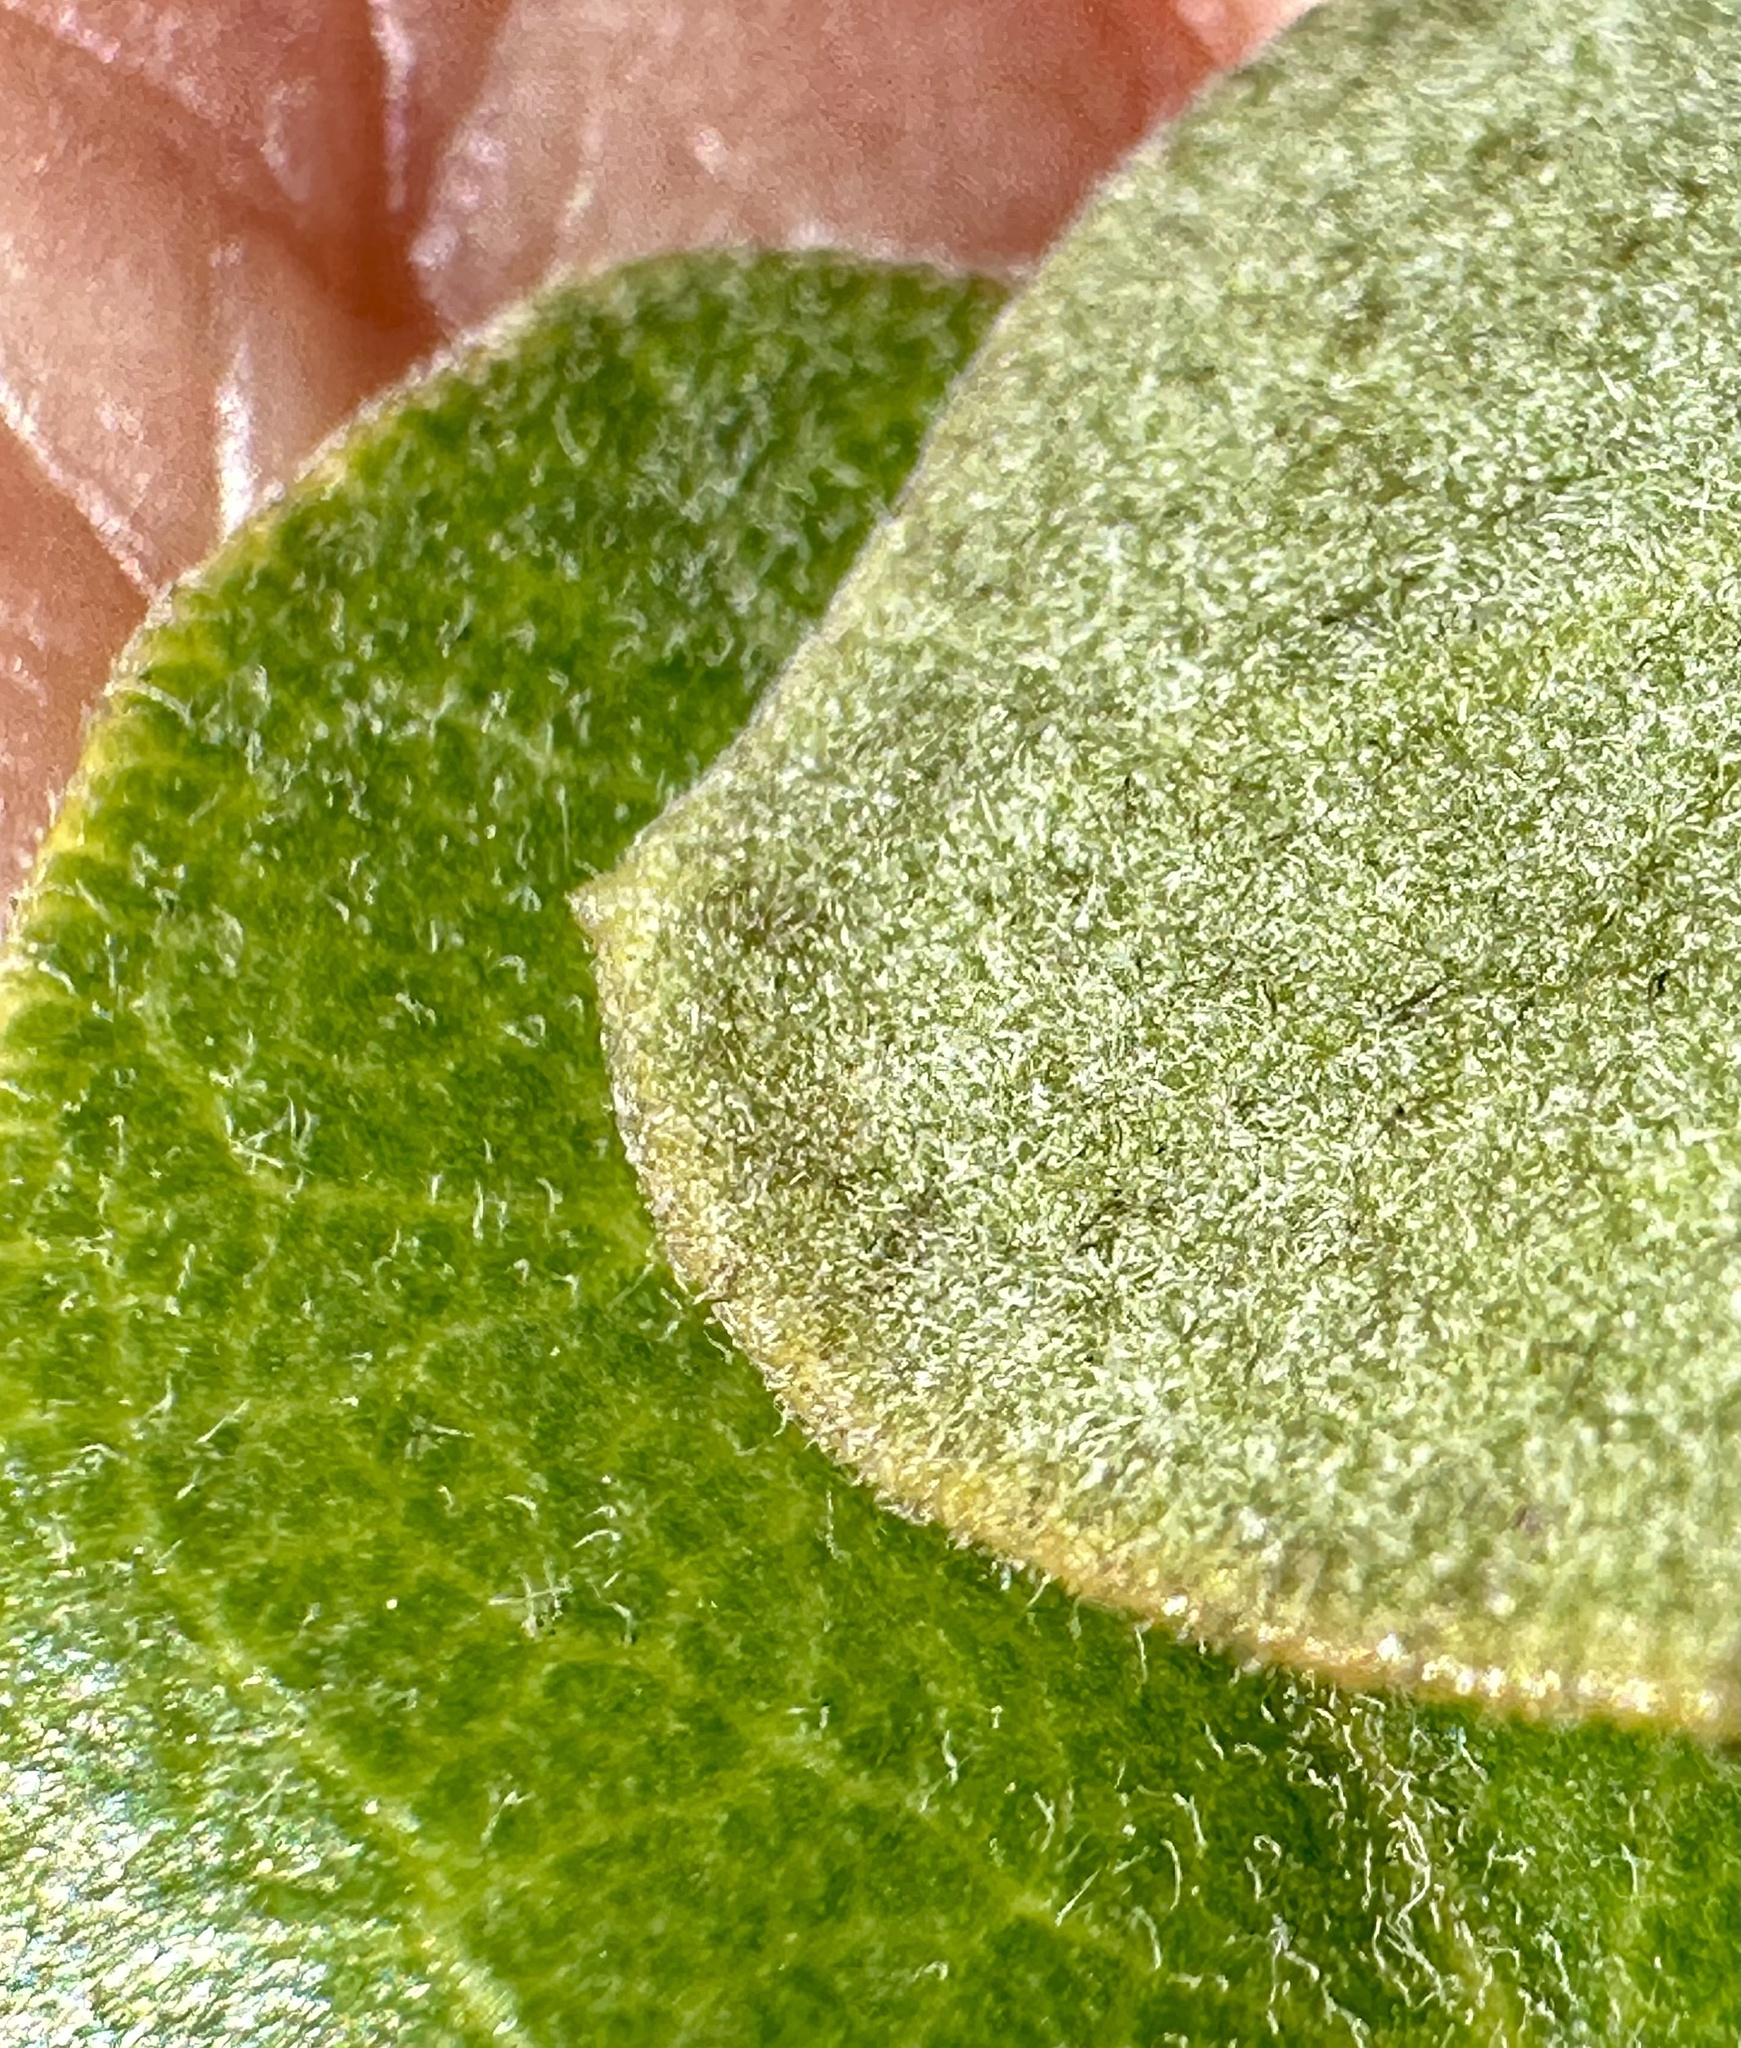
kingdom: Plantae
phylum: Tracheophyta
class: Magnoliopsida
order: Ericales
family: Ericaceae
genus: Arctostaphylos
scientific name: Arctostaphylos tomentosa
